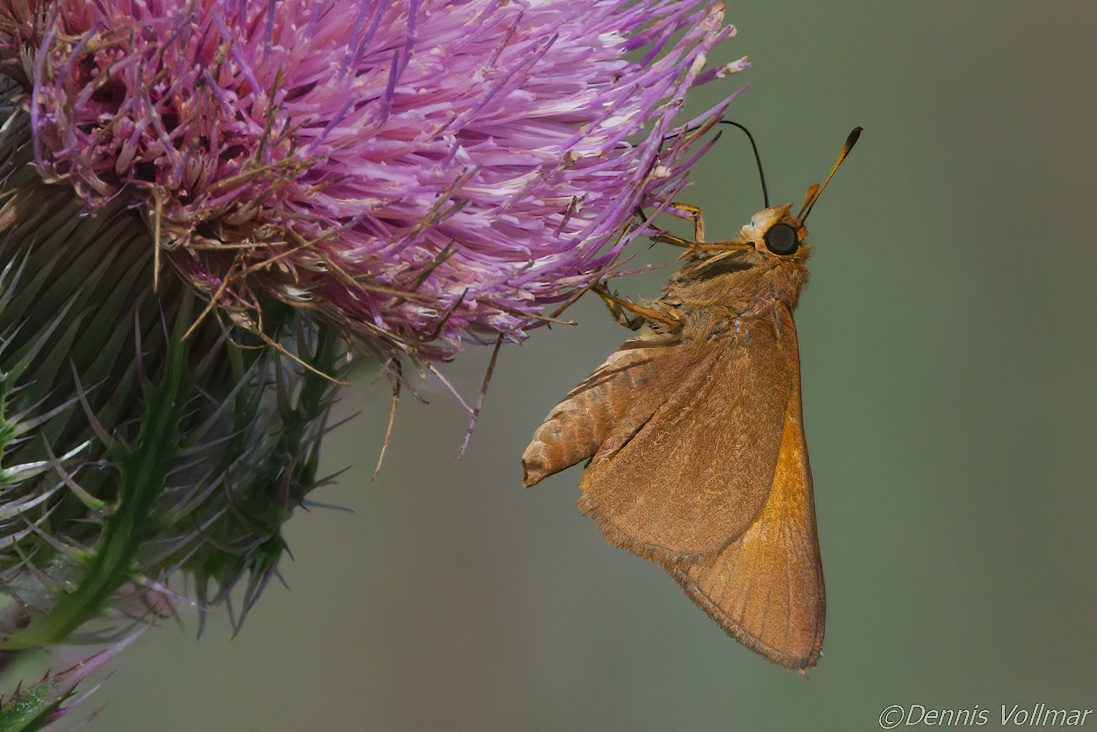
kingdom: Animalia
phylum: Arthropoda
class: Insecta
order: Lepidoptera
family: Hesperiidae
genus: Euphyes
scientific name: Euphyes pilatka
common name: Palatka skipper
